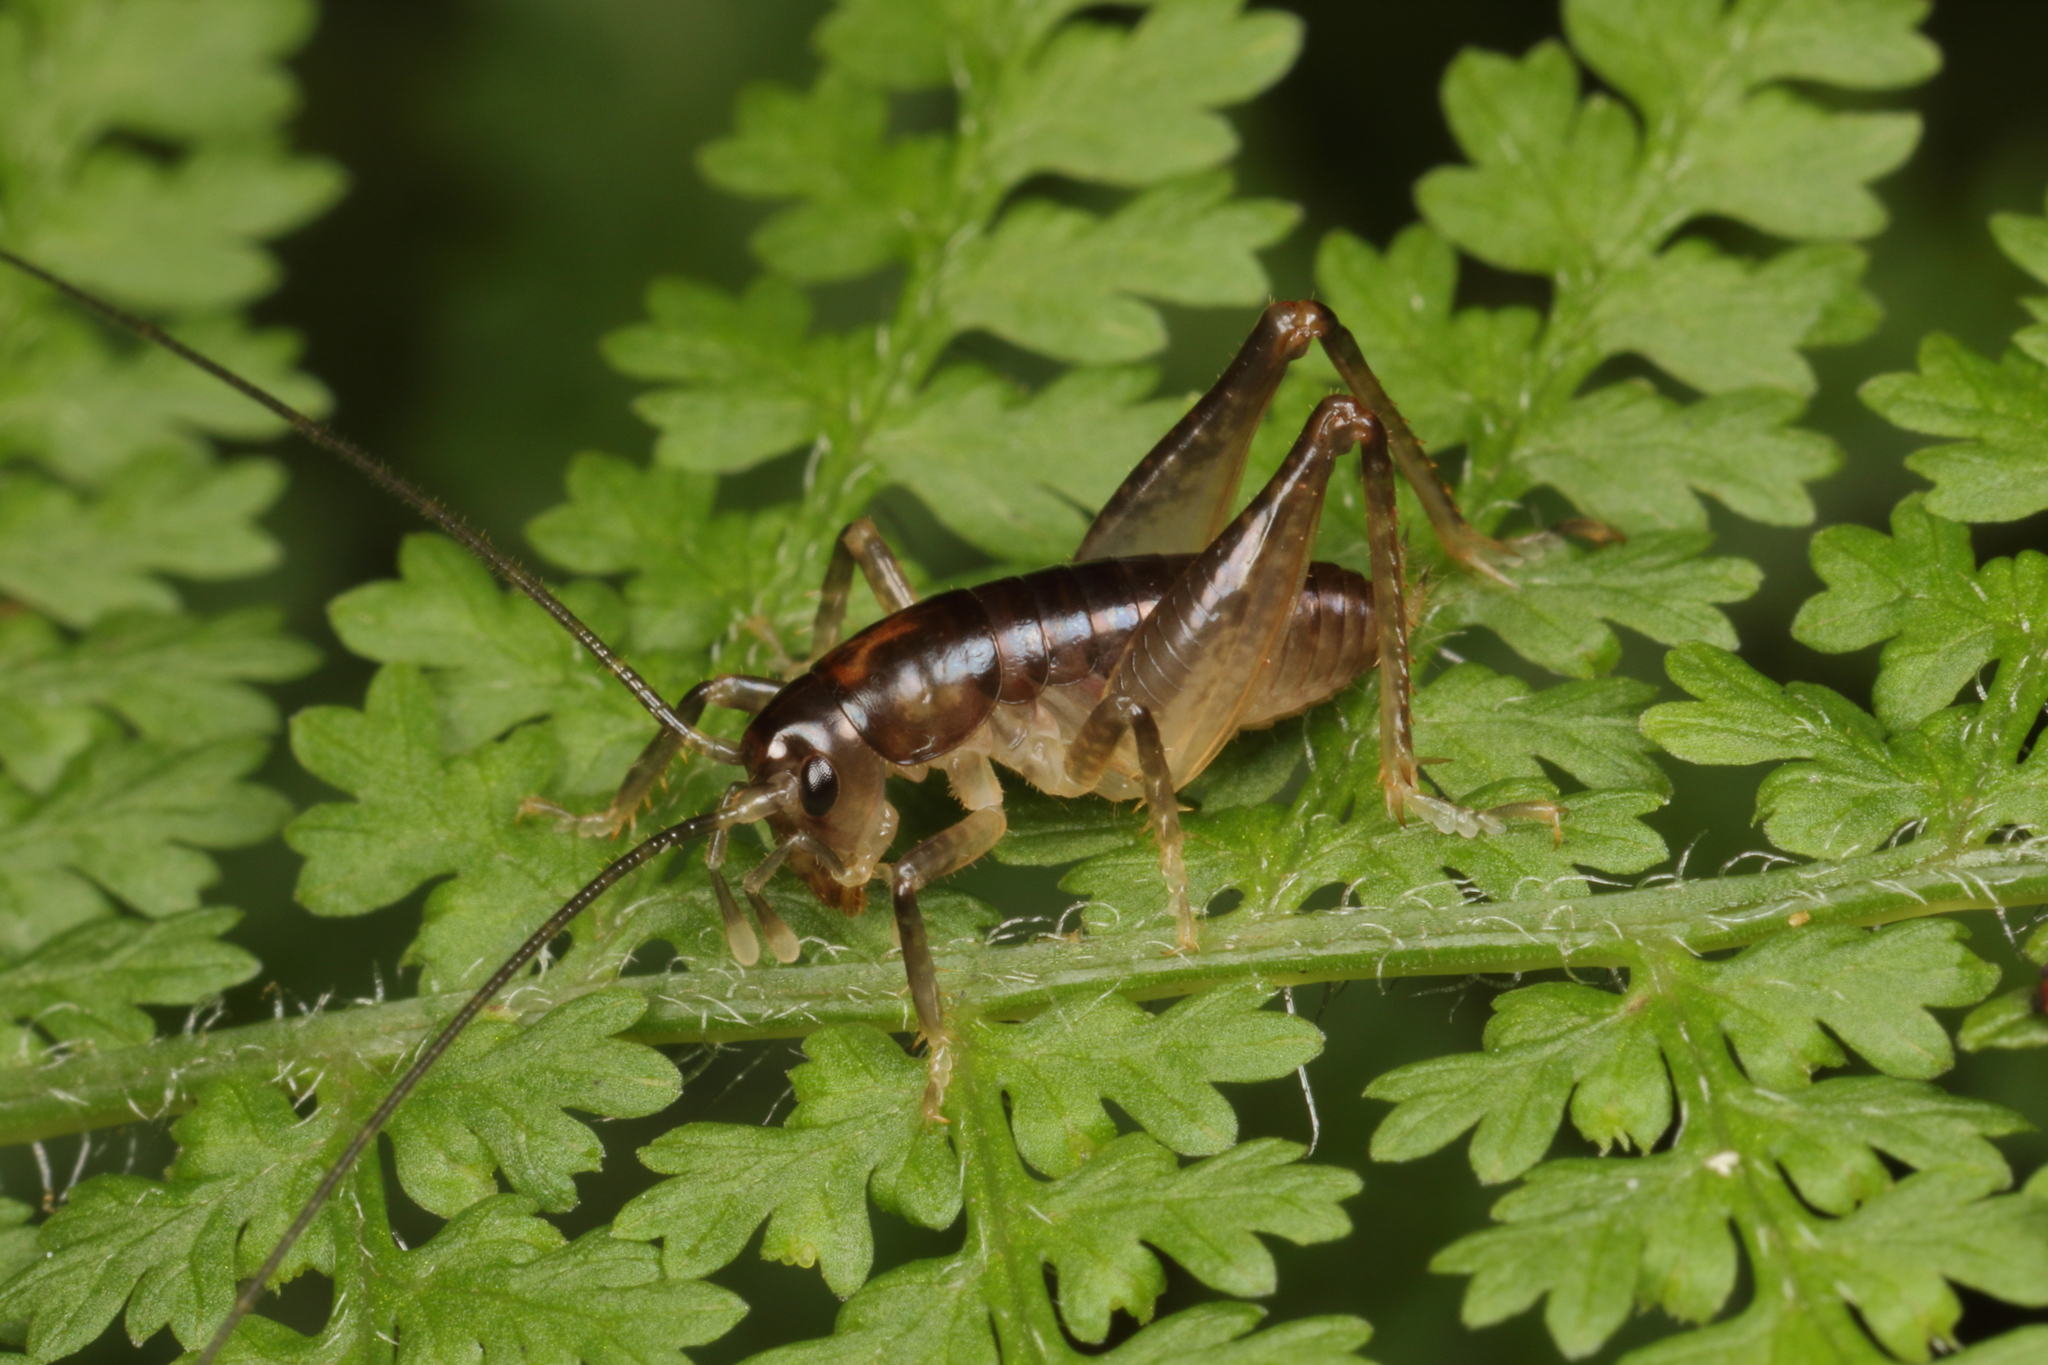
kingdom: Animalia
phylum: Arthropoda
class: Insecta
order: Orthoptera
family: Anostostomatidae
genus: Hemiandrus
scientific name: Hemiandrus maculifrons
